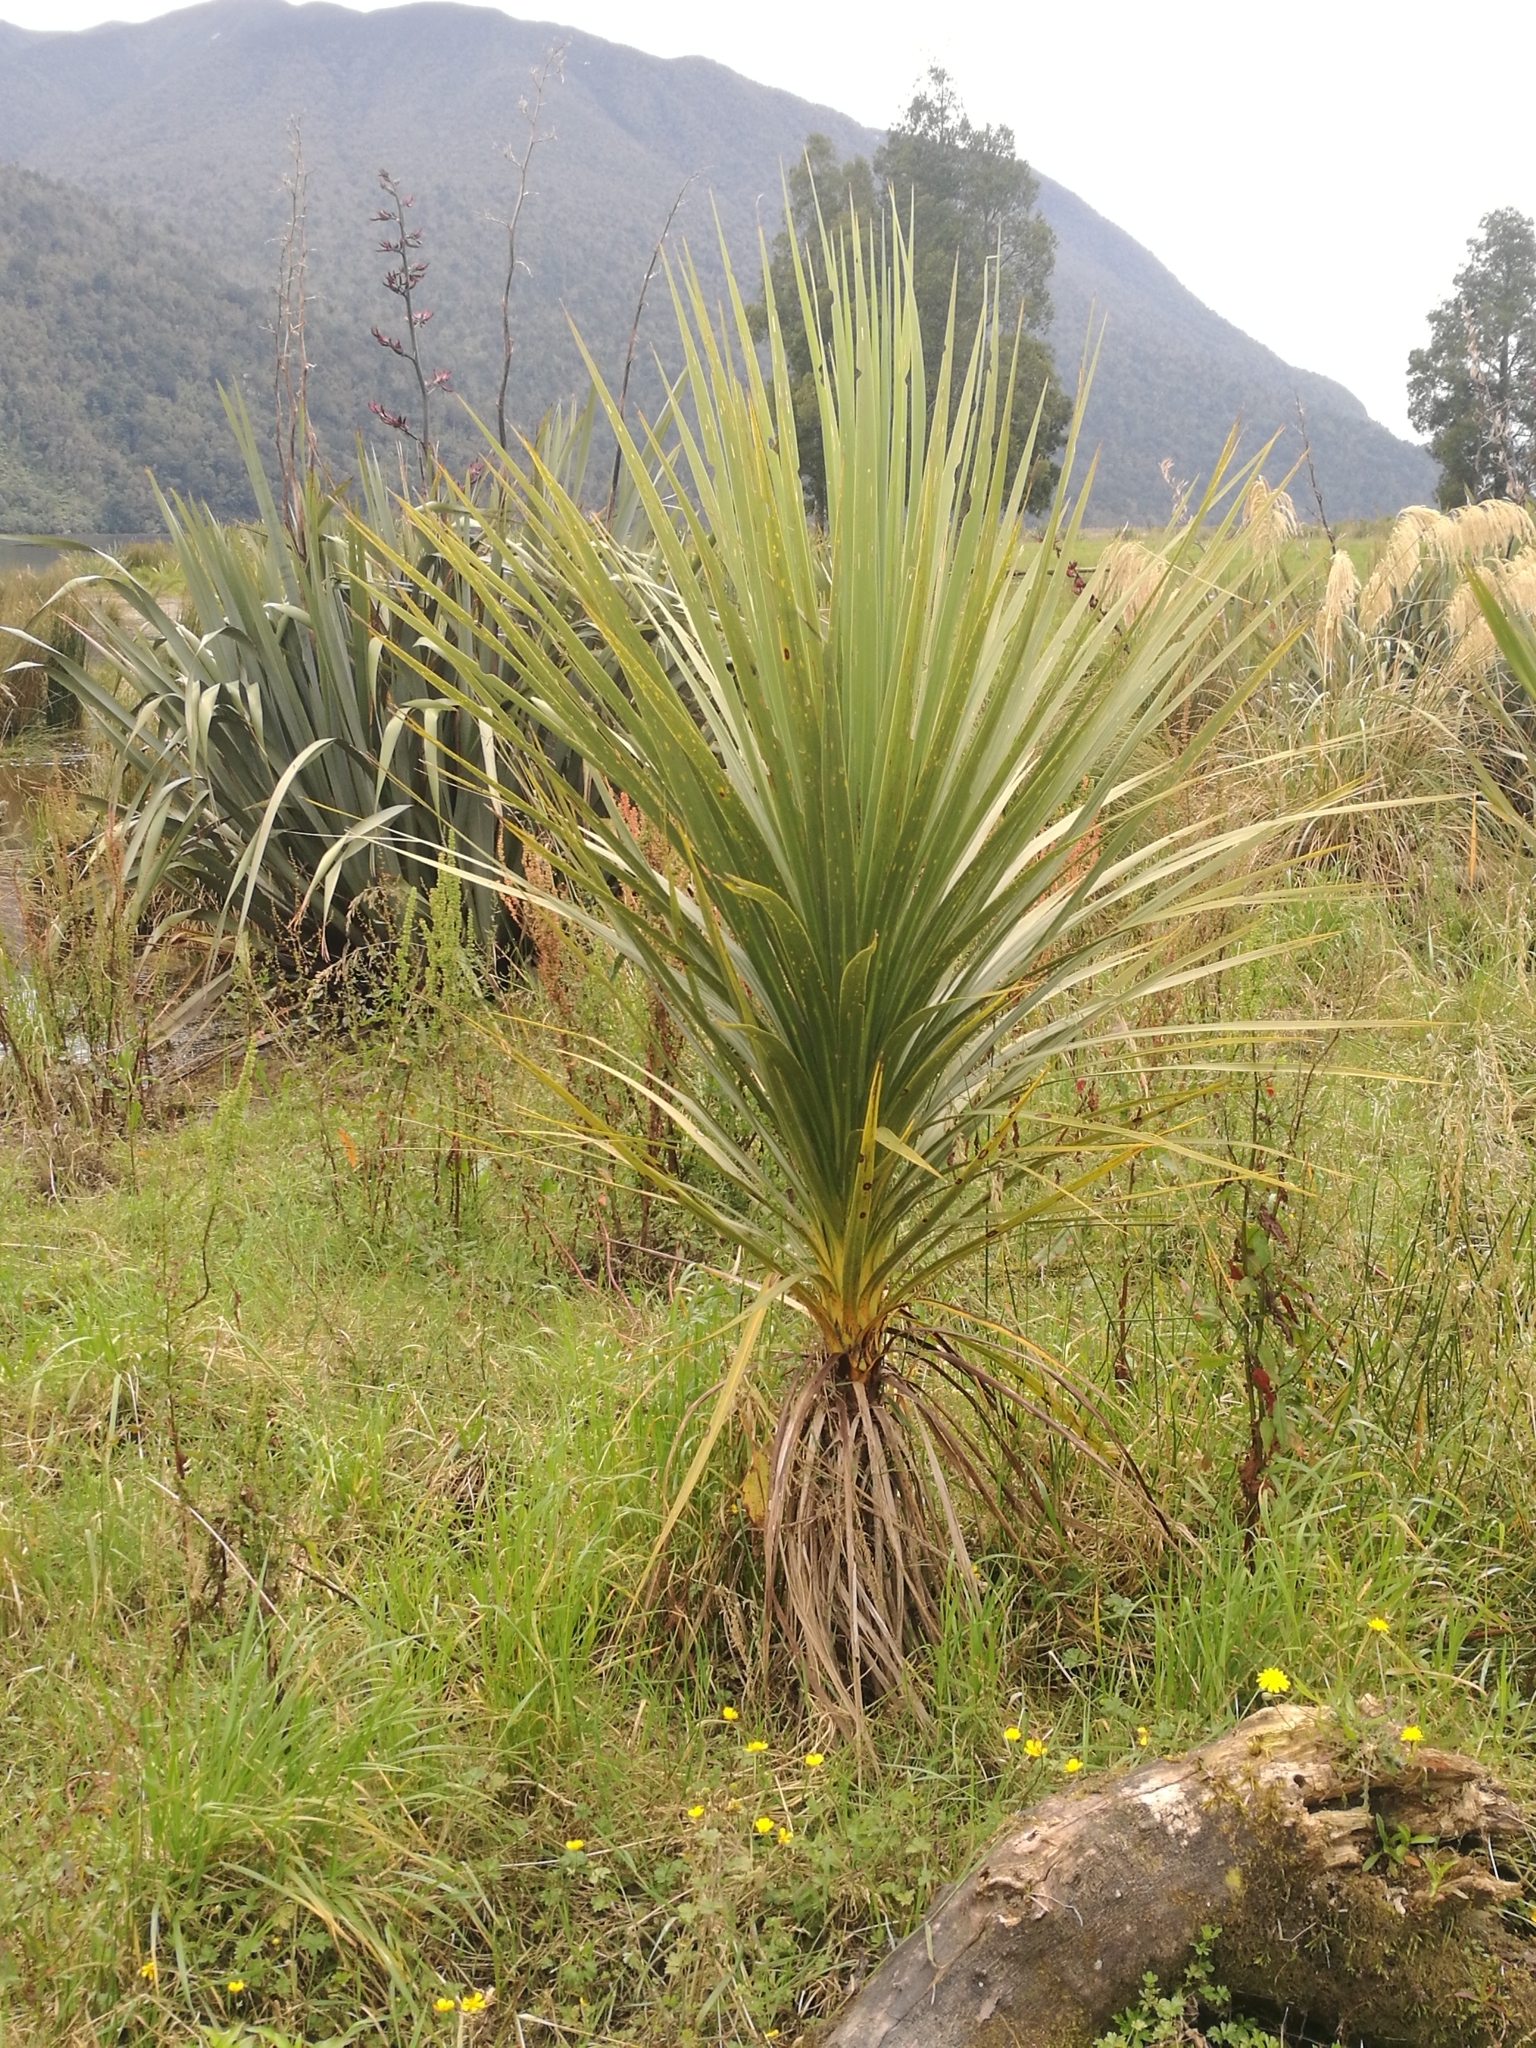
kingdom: Plantae
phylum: Tracheophyta
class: Liliopsida
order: Asparagales
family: Asparagaceae
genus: Cordyline
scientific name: Cordyline australis
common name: Cabbage-palm
